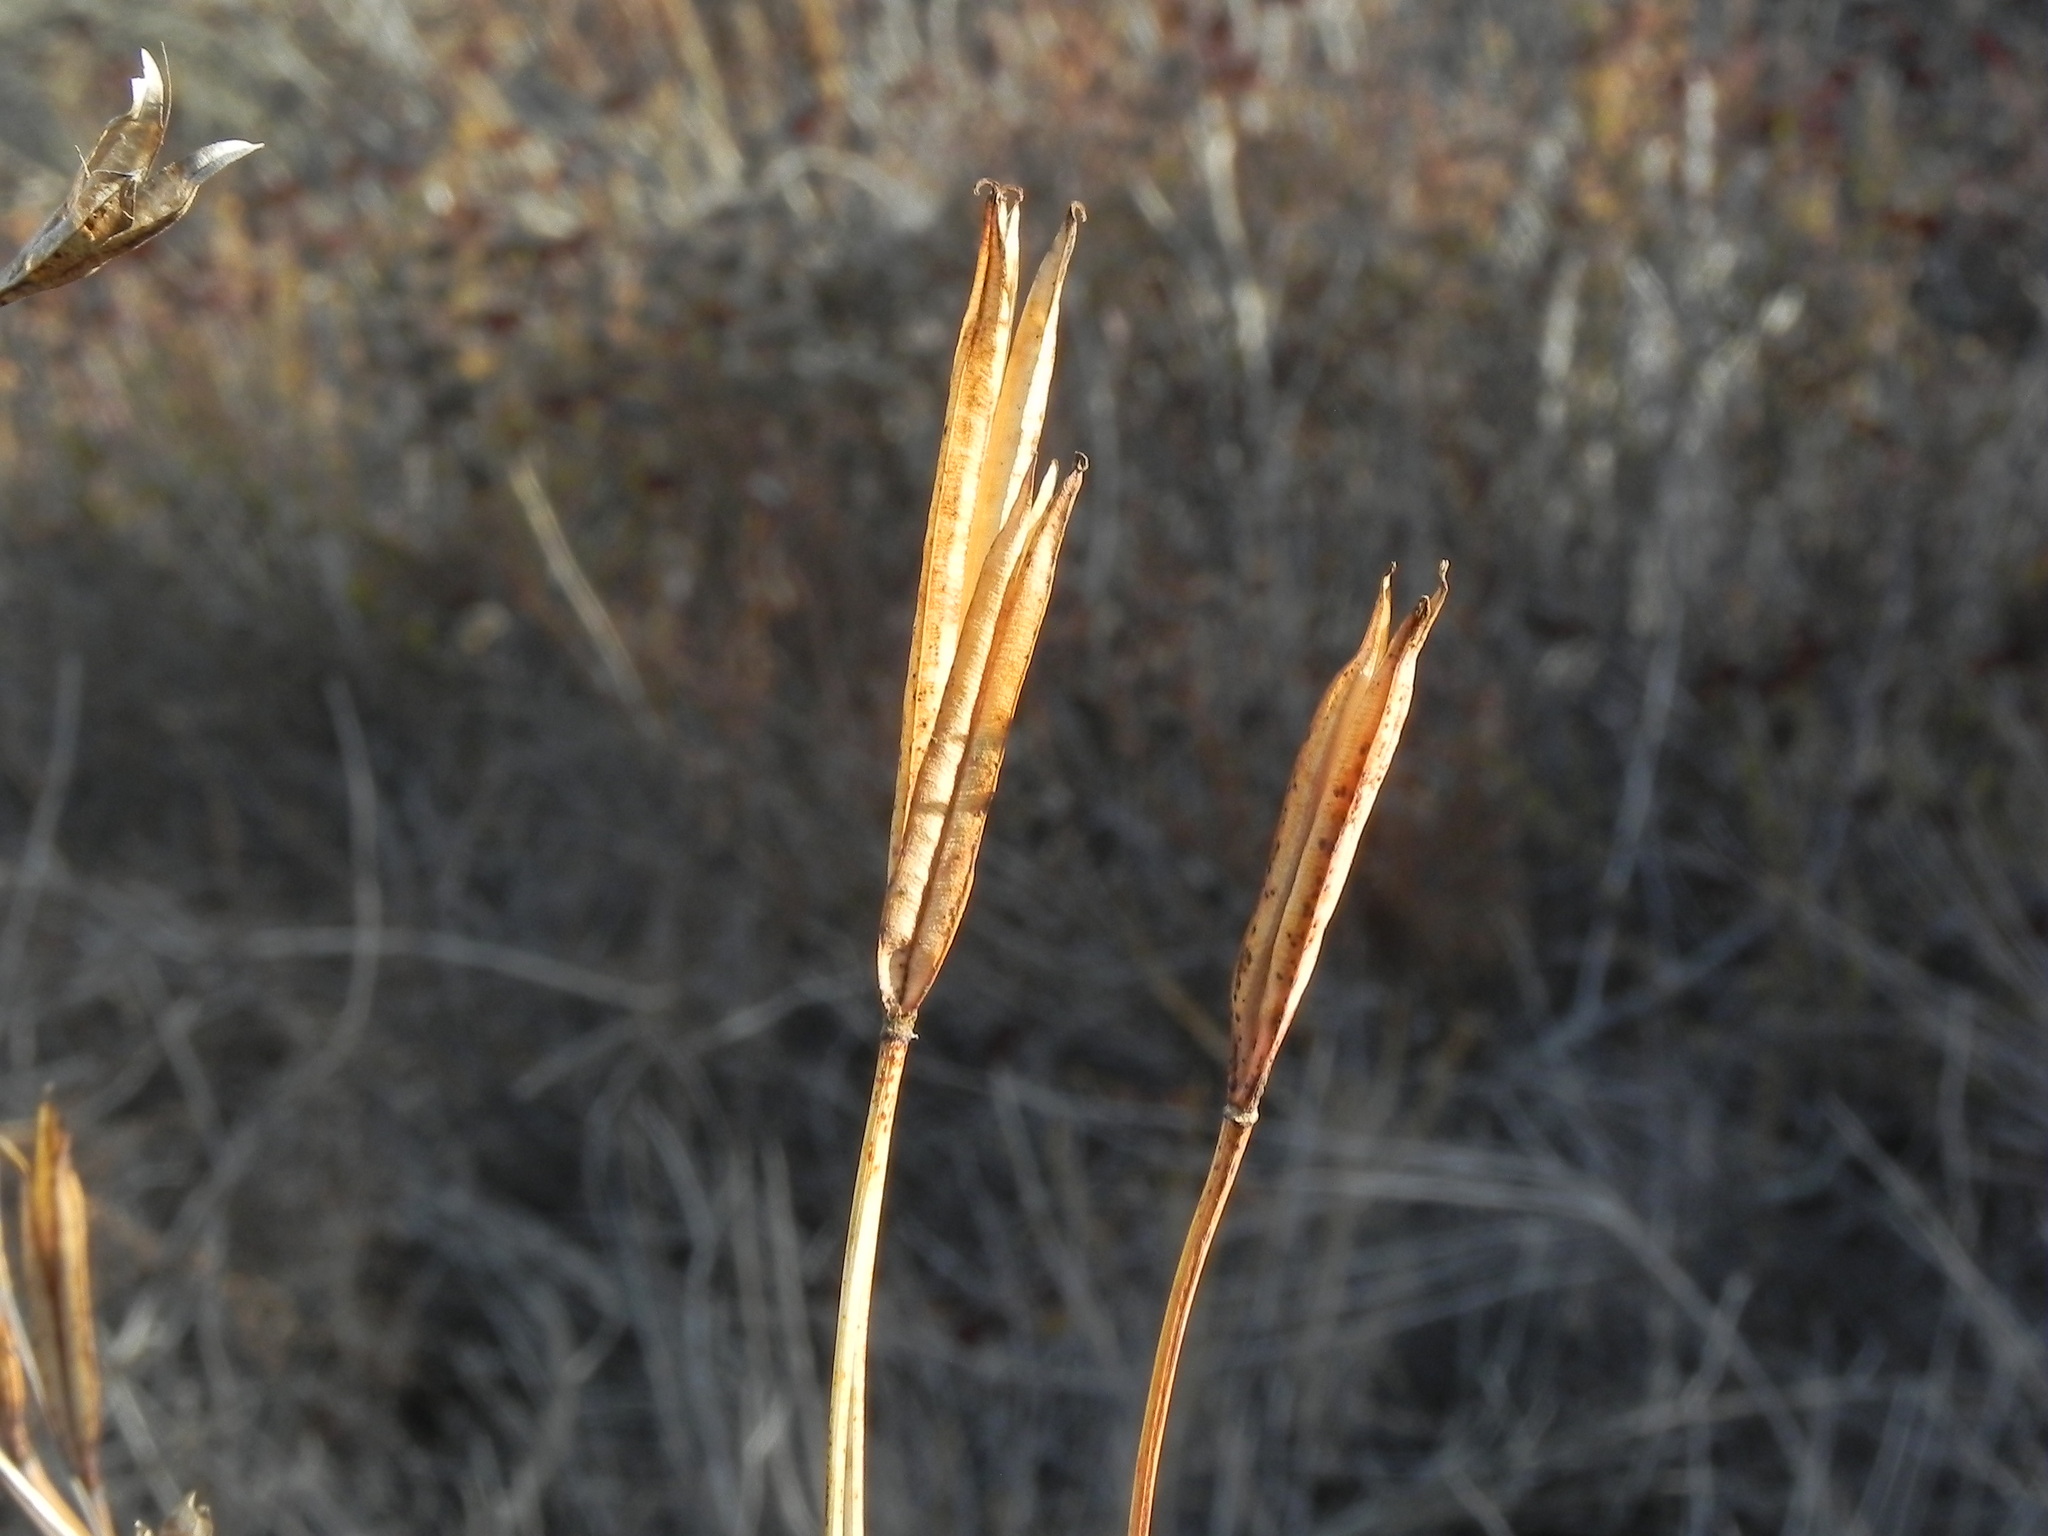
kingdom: Plantae
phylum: Tracheophyta
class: Liliopsida
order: Liliales
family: Liliaceae
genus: Calochortus
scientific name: Calochortus weedii
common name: Weed's mariposa-lily
